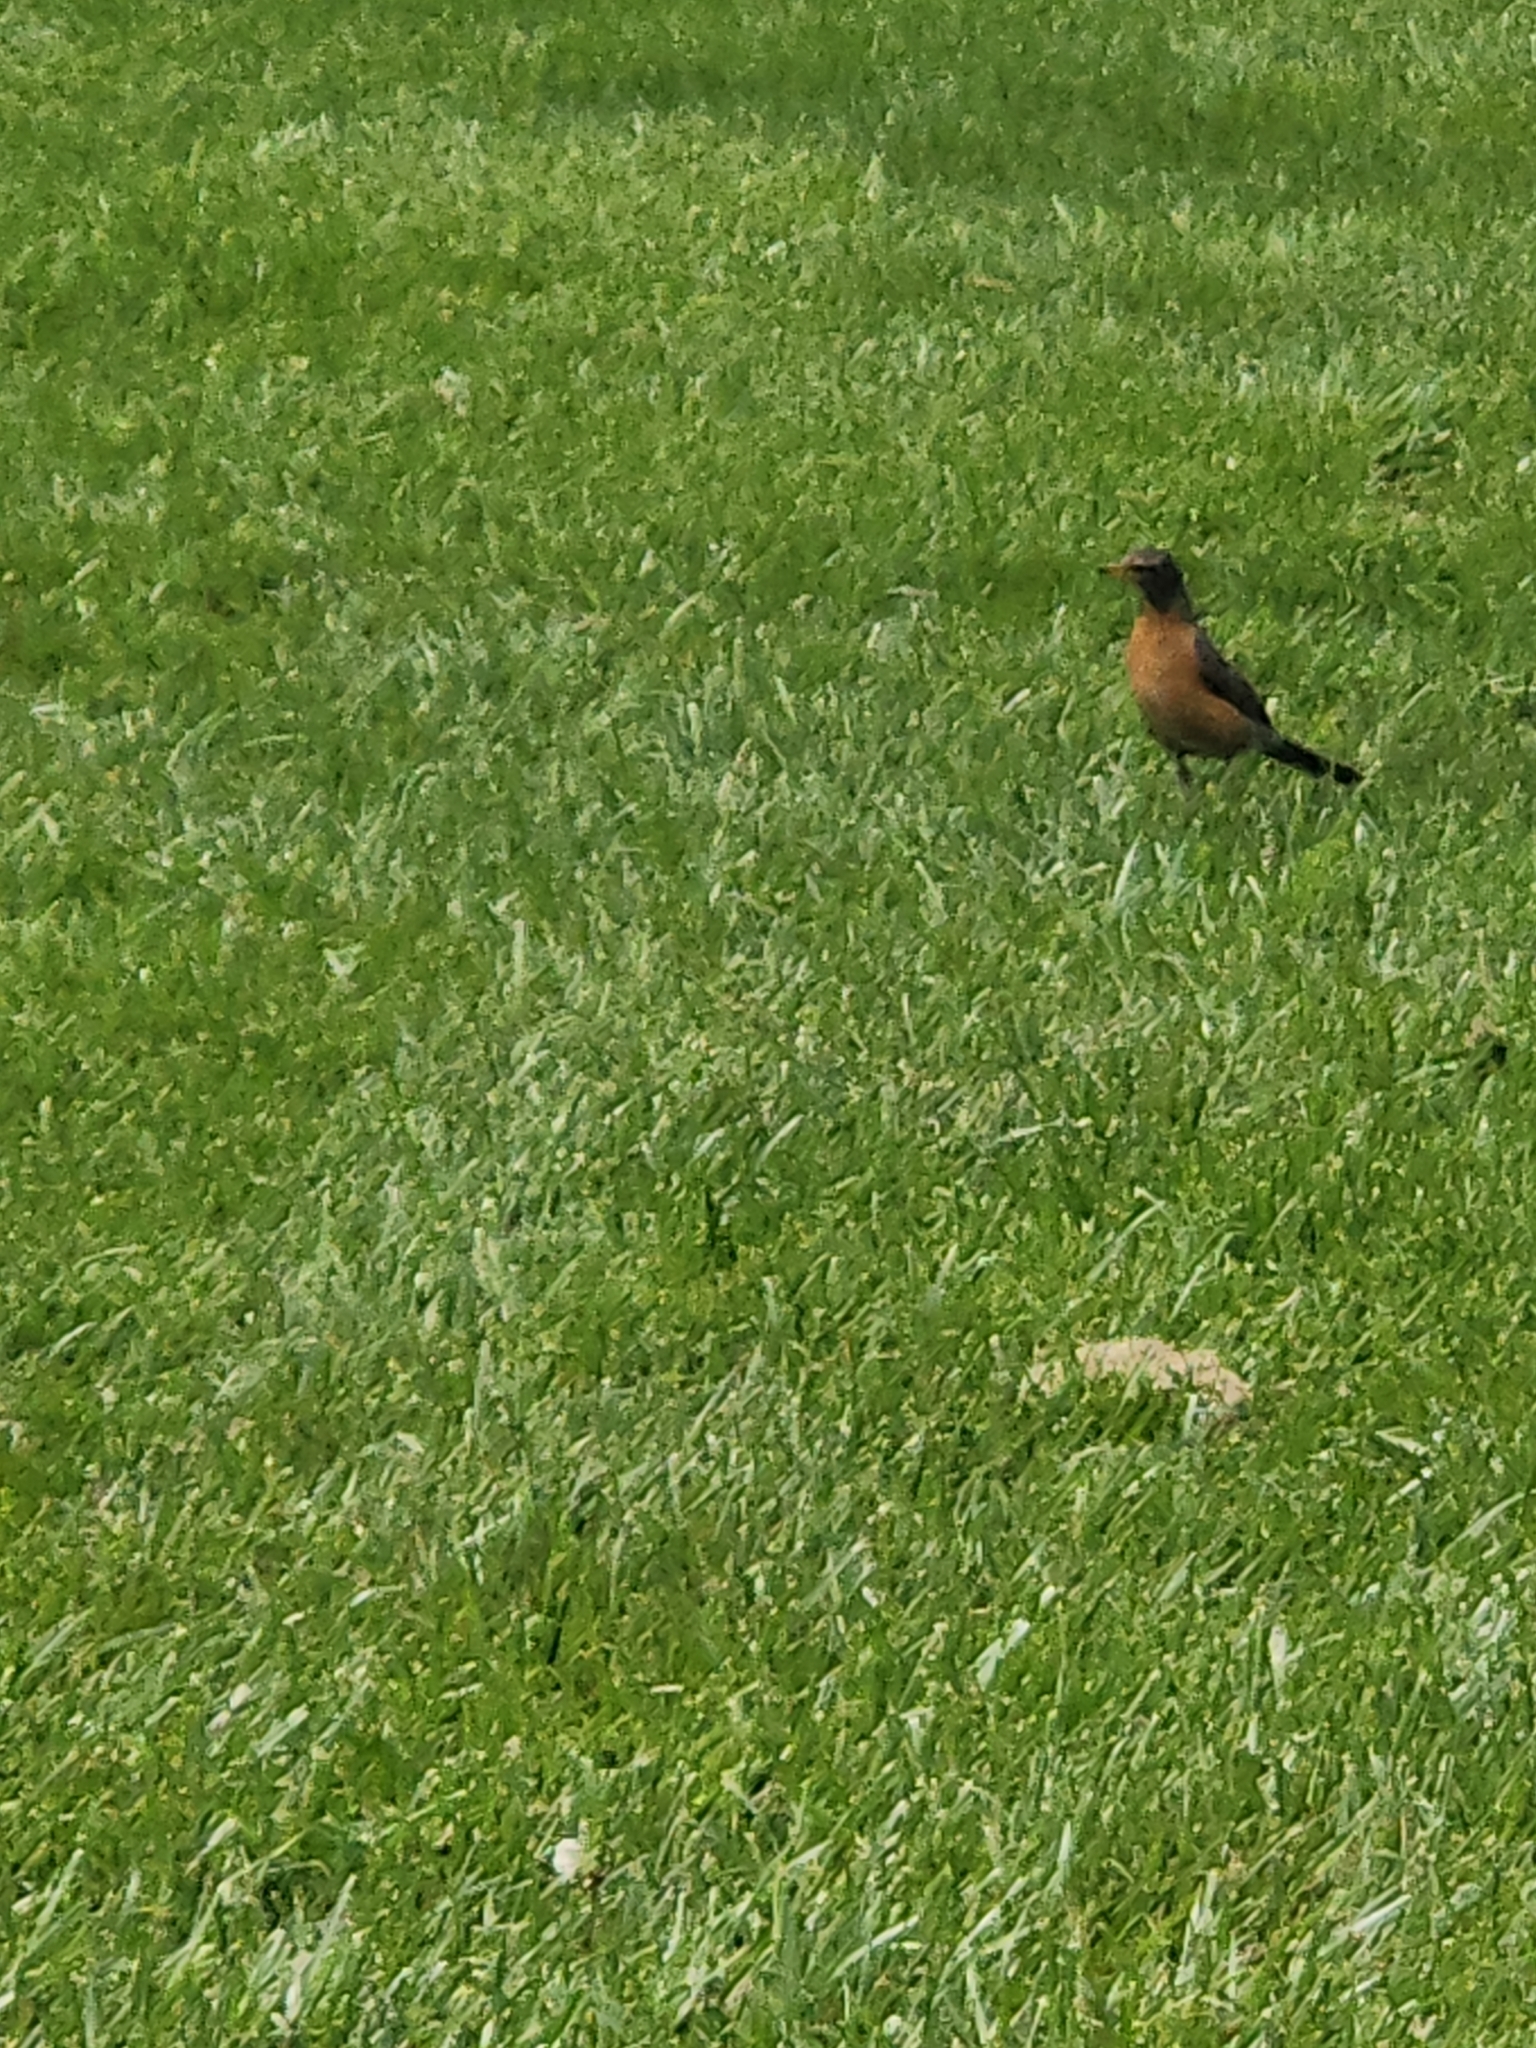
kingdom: Animalia
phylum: Chordata
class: Aves
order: Passeriformes
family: Turdidae
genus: Turdus
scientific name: Turdus migratorius
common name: American robin
